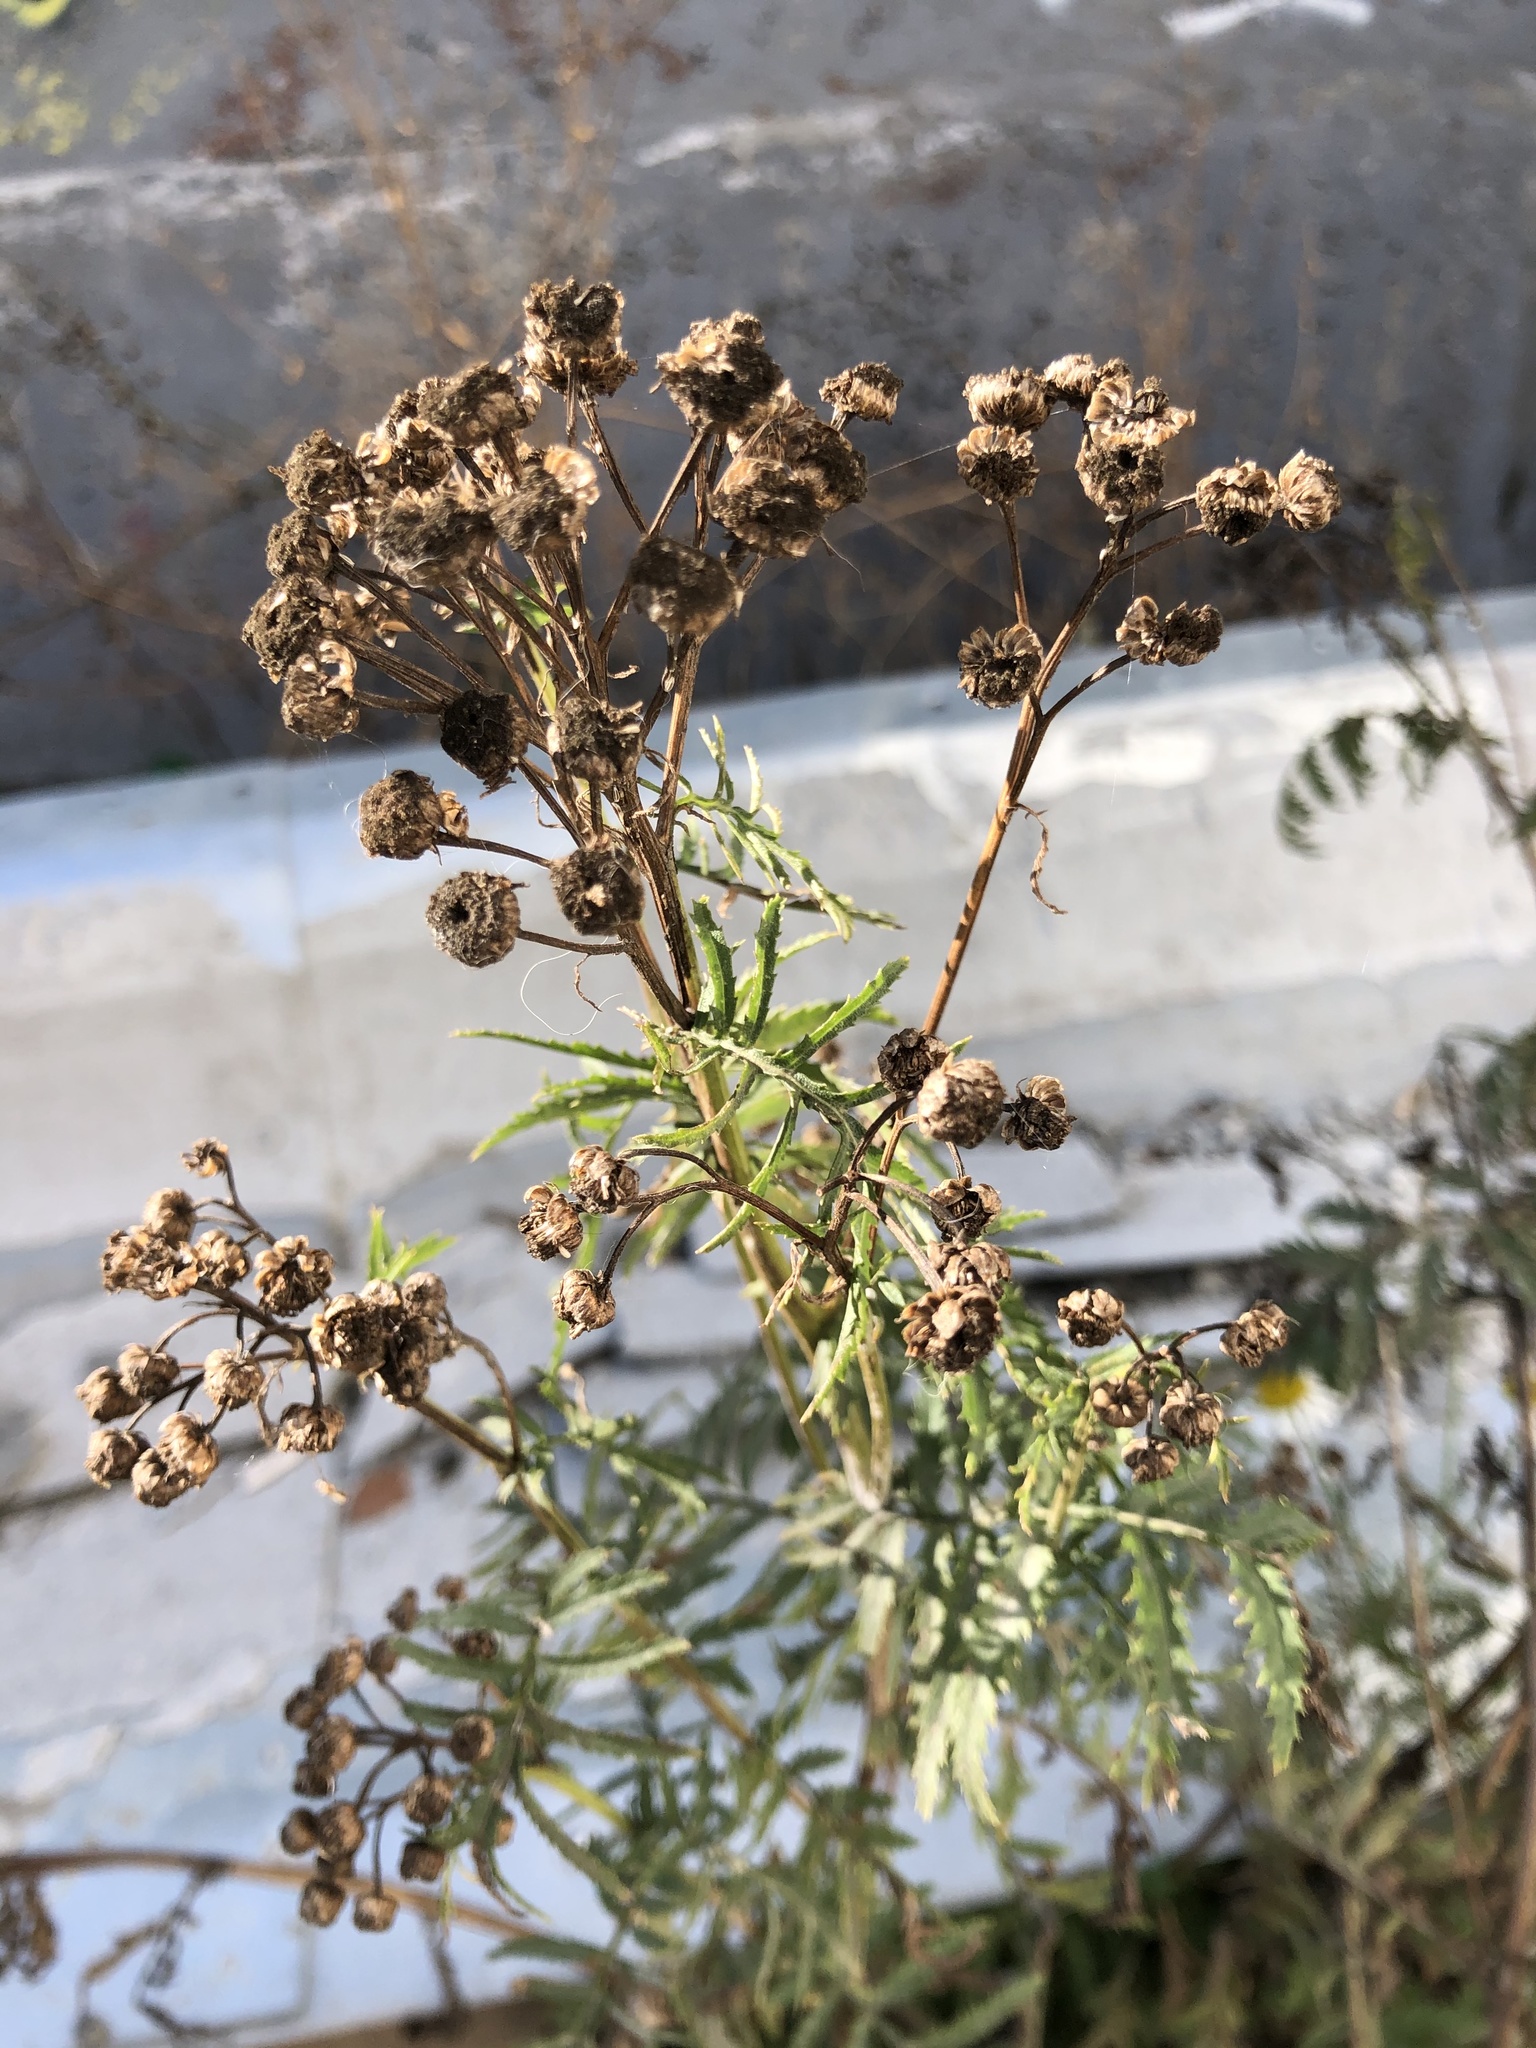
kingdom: Plantae
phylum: Tracheophyta
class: Magnoliopsida
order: Asterales
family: Asteraceae
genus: Tanacetum
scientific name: Tanacetum vulgare
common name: Common tansy
